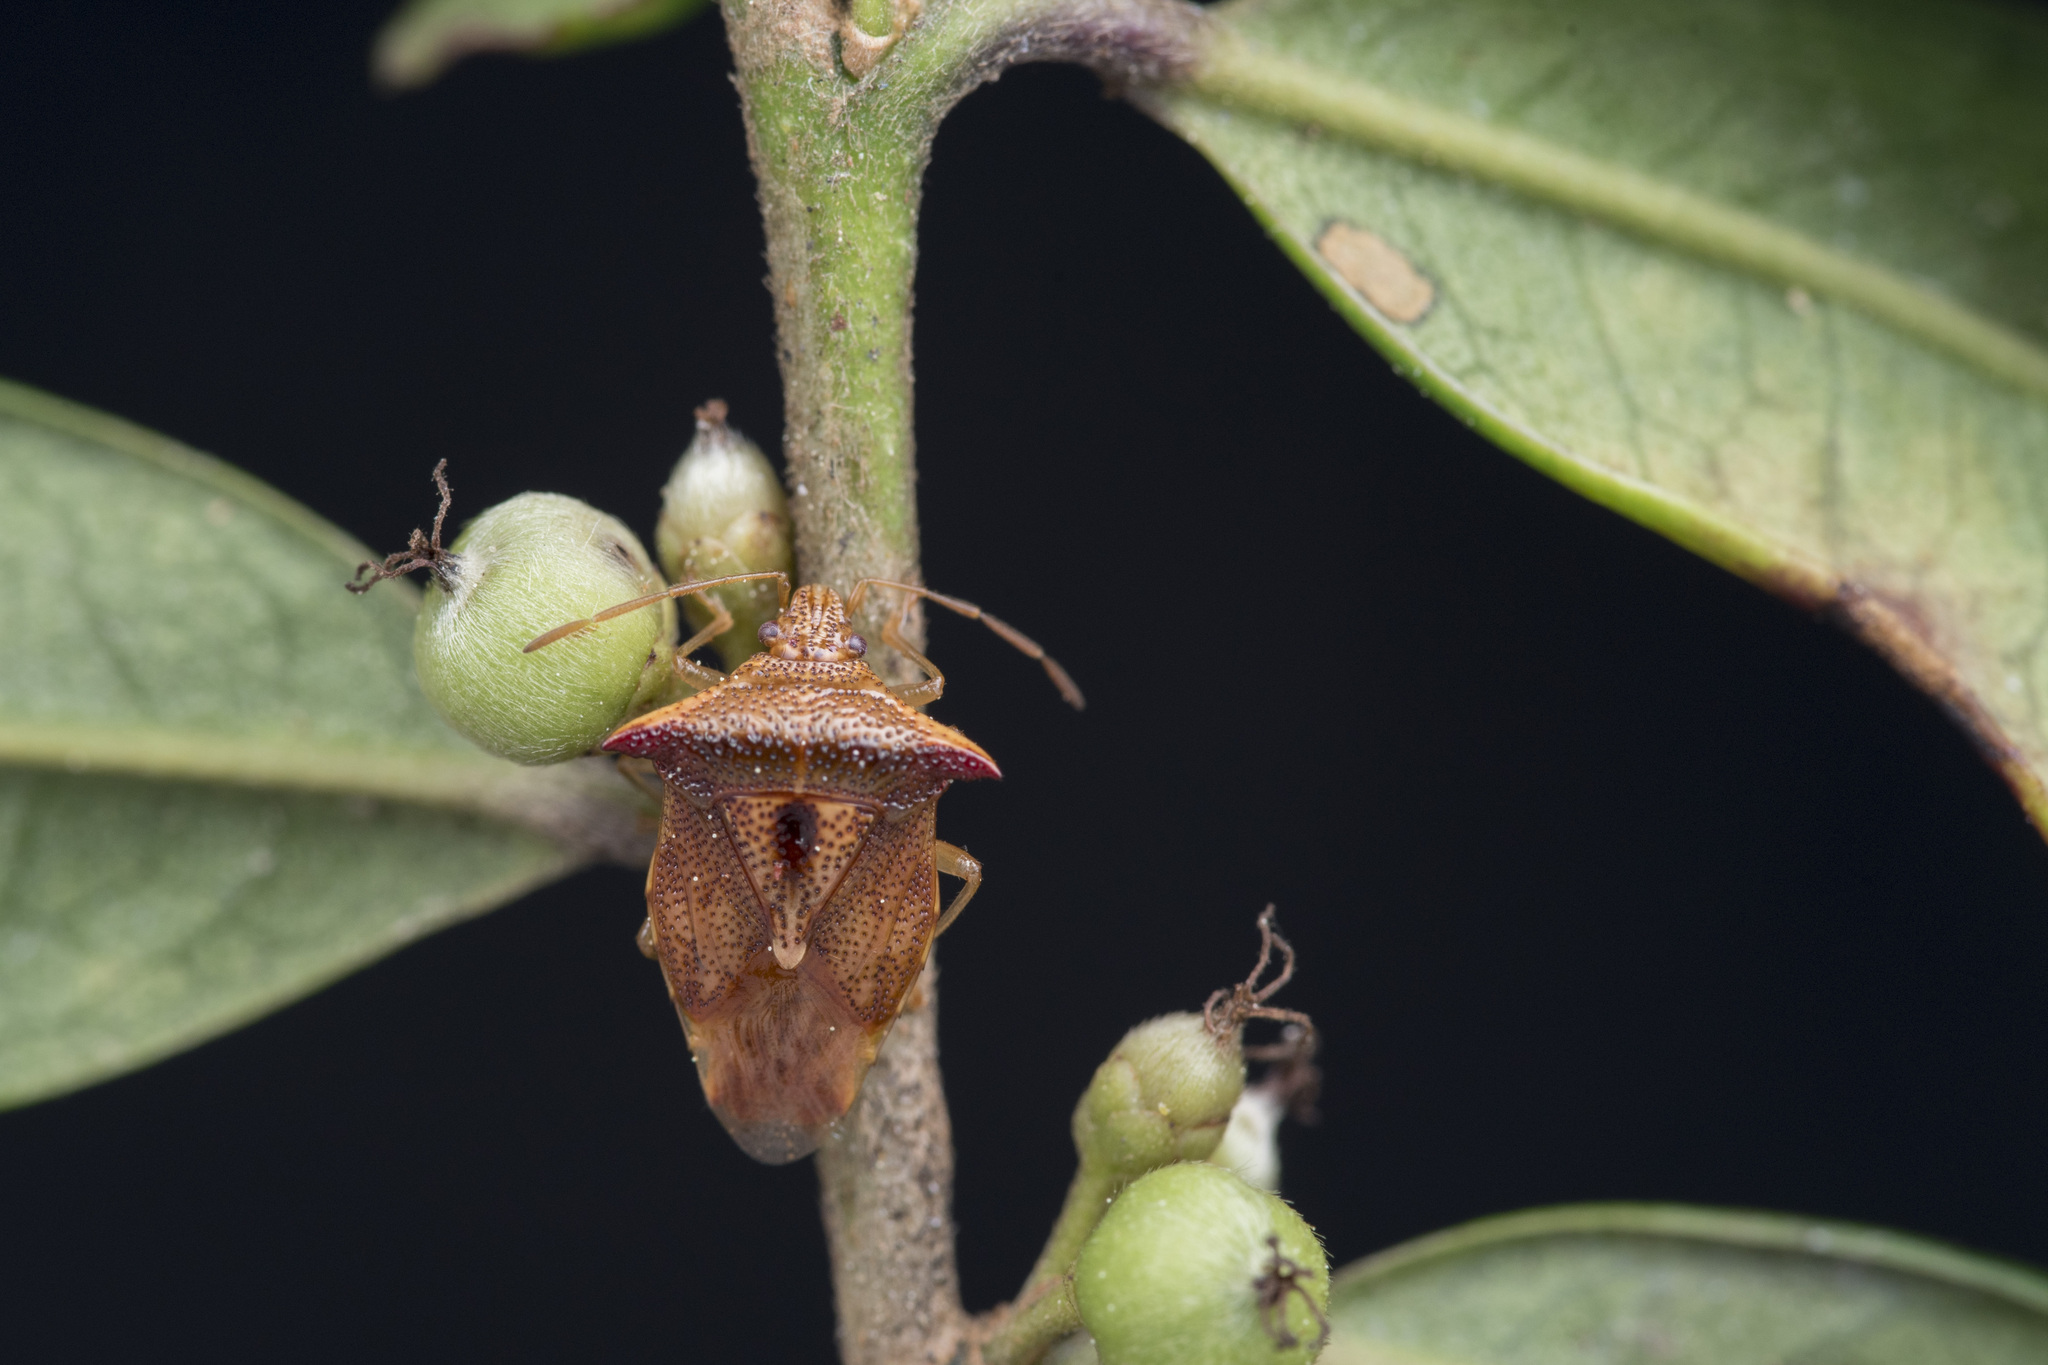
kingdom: Animalia
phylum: Arthropoda
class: Insecta
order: Hemiptera
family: Acanthosomatidae
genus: Elasmucha
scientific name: Elasmucha scutellata
